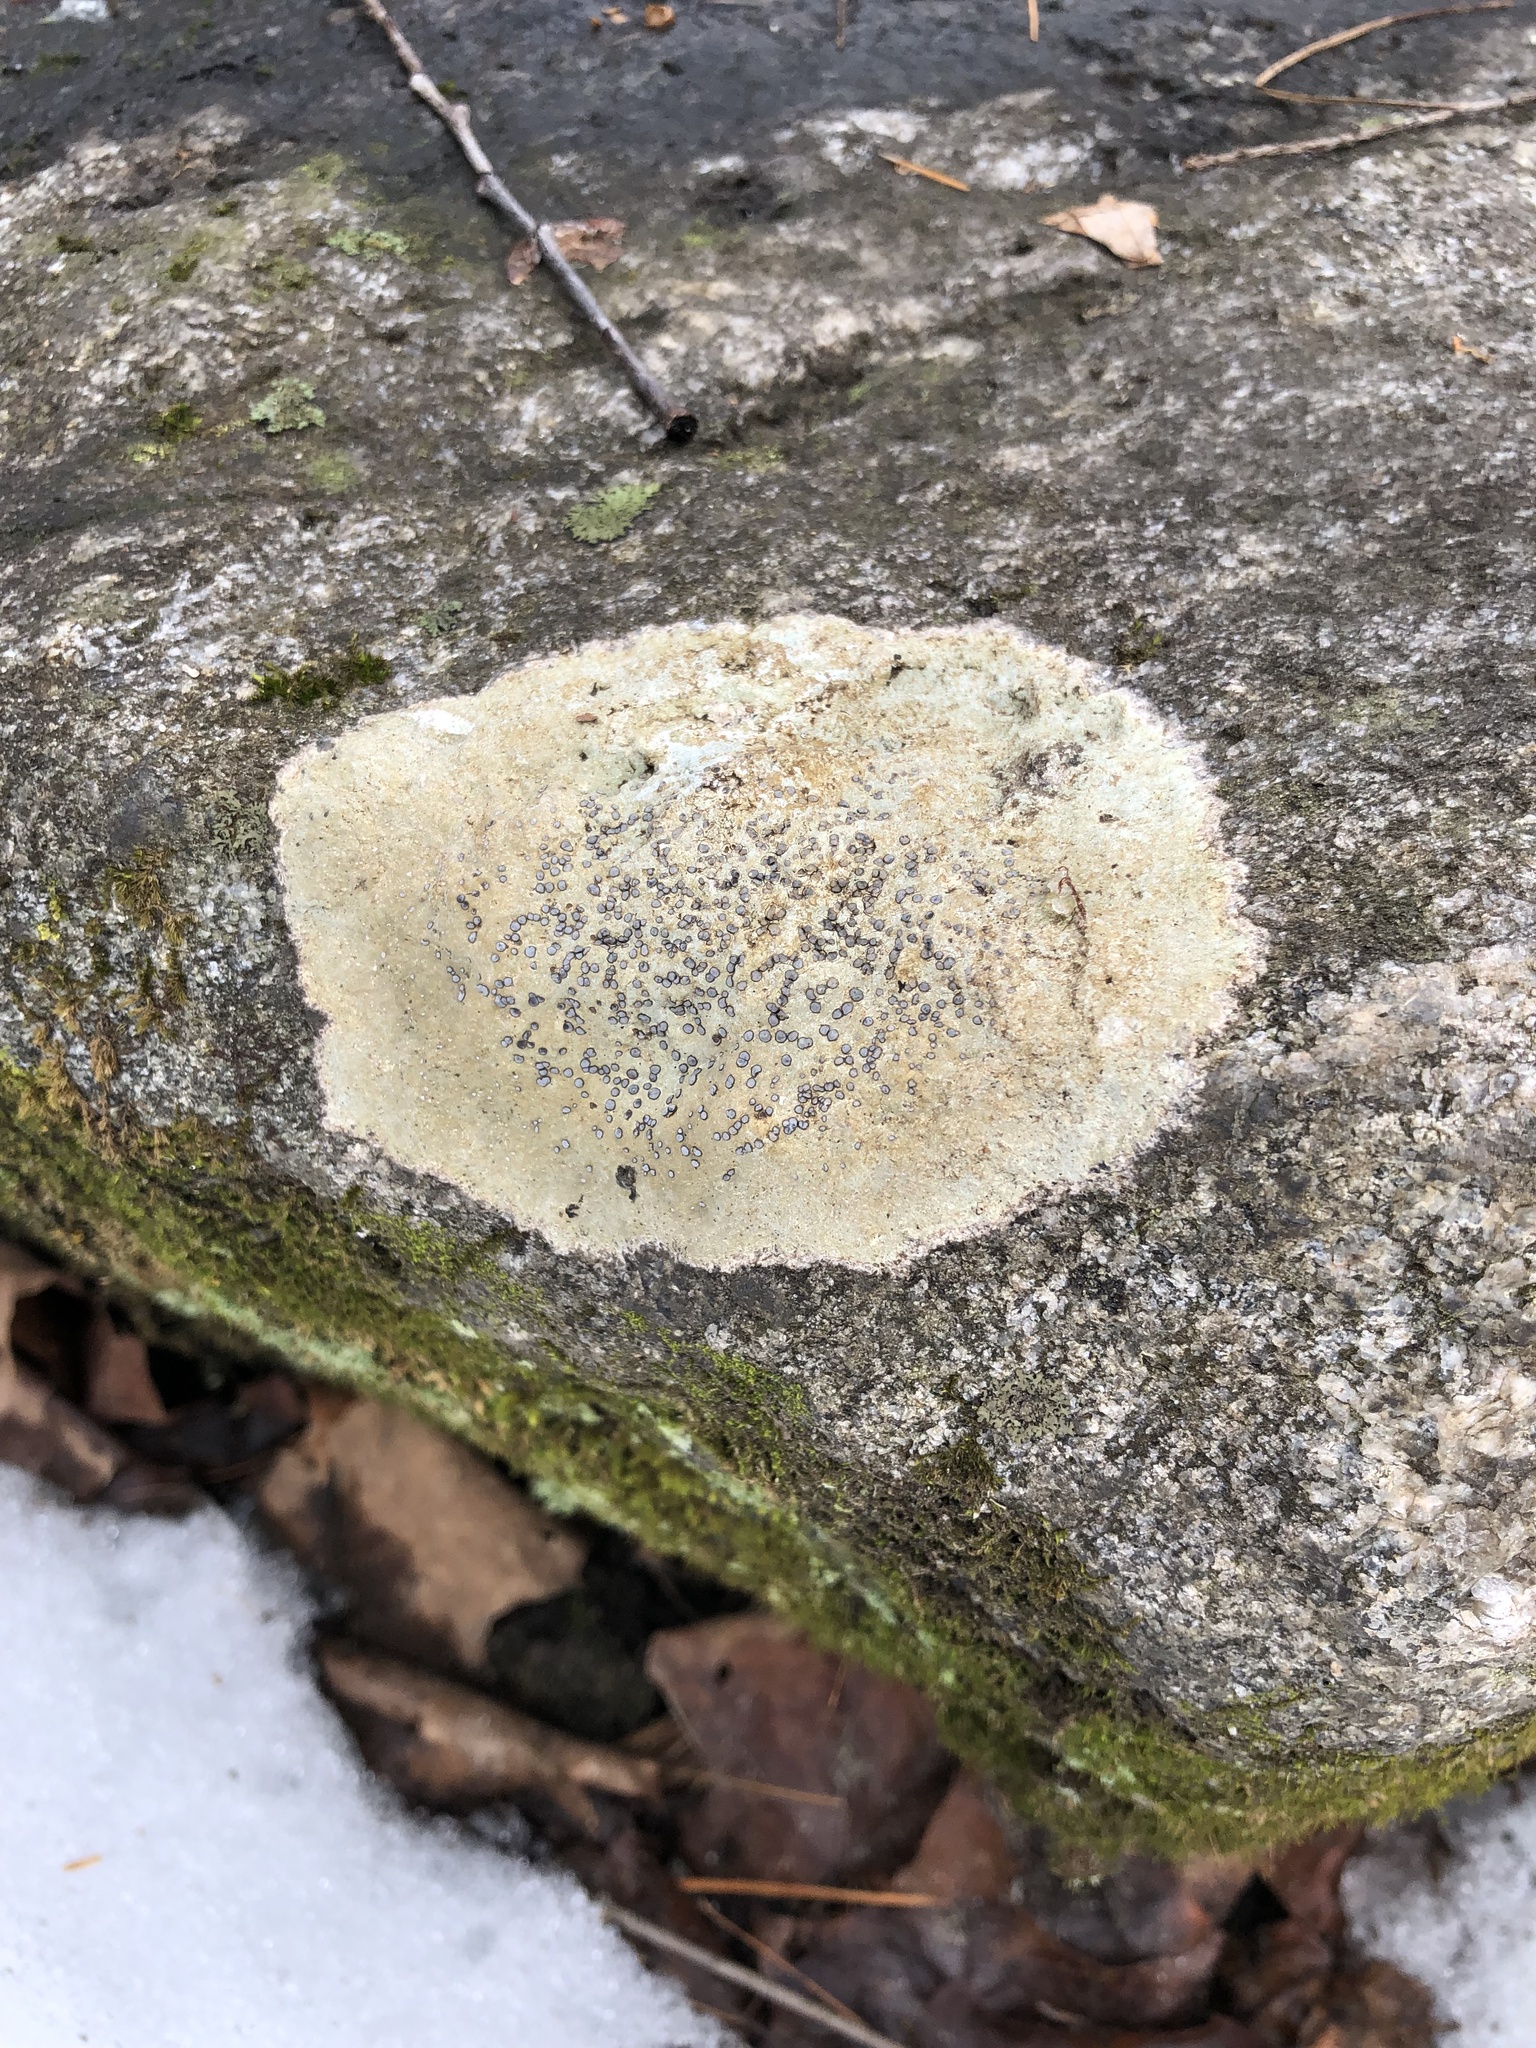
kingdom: Fungi
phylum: Ascomycota
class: Lecanoromycetes
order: Lecideales
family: Lecideaceae
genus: Porpidia
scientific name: Porpidia albocaerulescens
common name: Smokey-eyed boulder lichen
